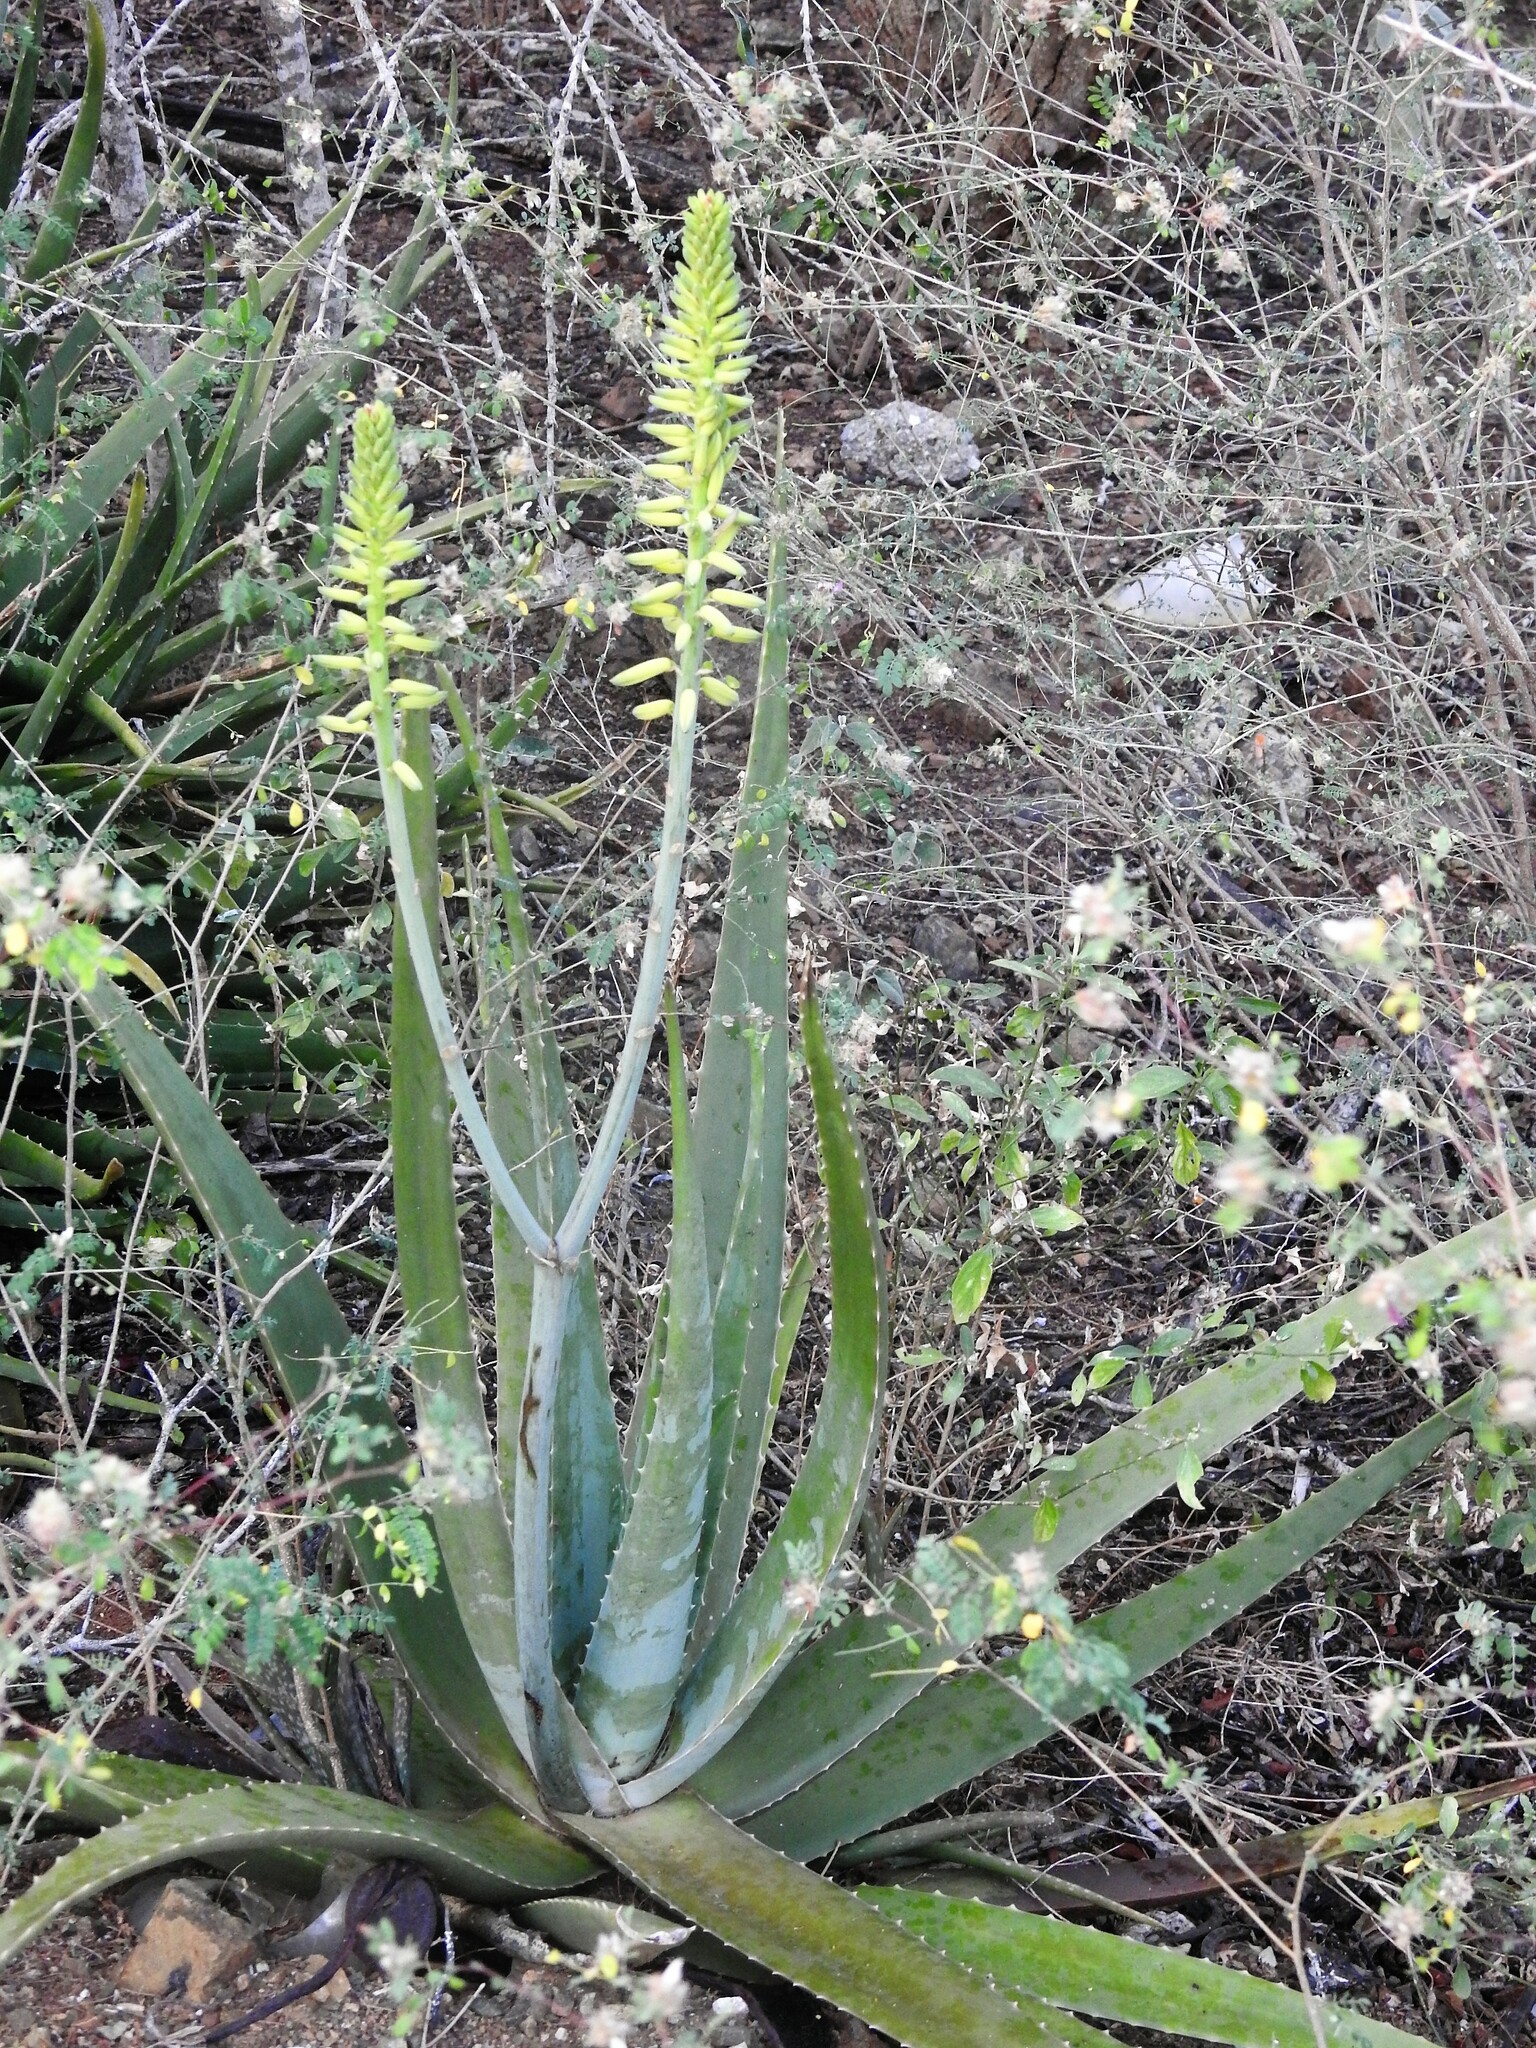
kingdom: Plantae
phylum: Tracheophyta
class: Liliopsida
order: Asparagales
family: Asphodelaceae
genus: Aloe
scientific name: Aloe vera
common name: Barbados aloe
